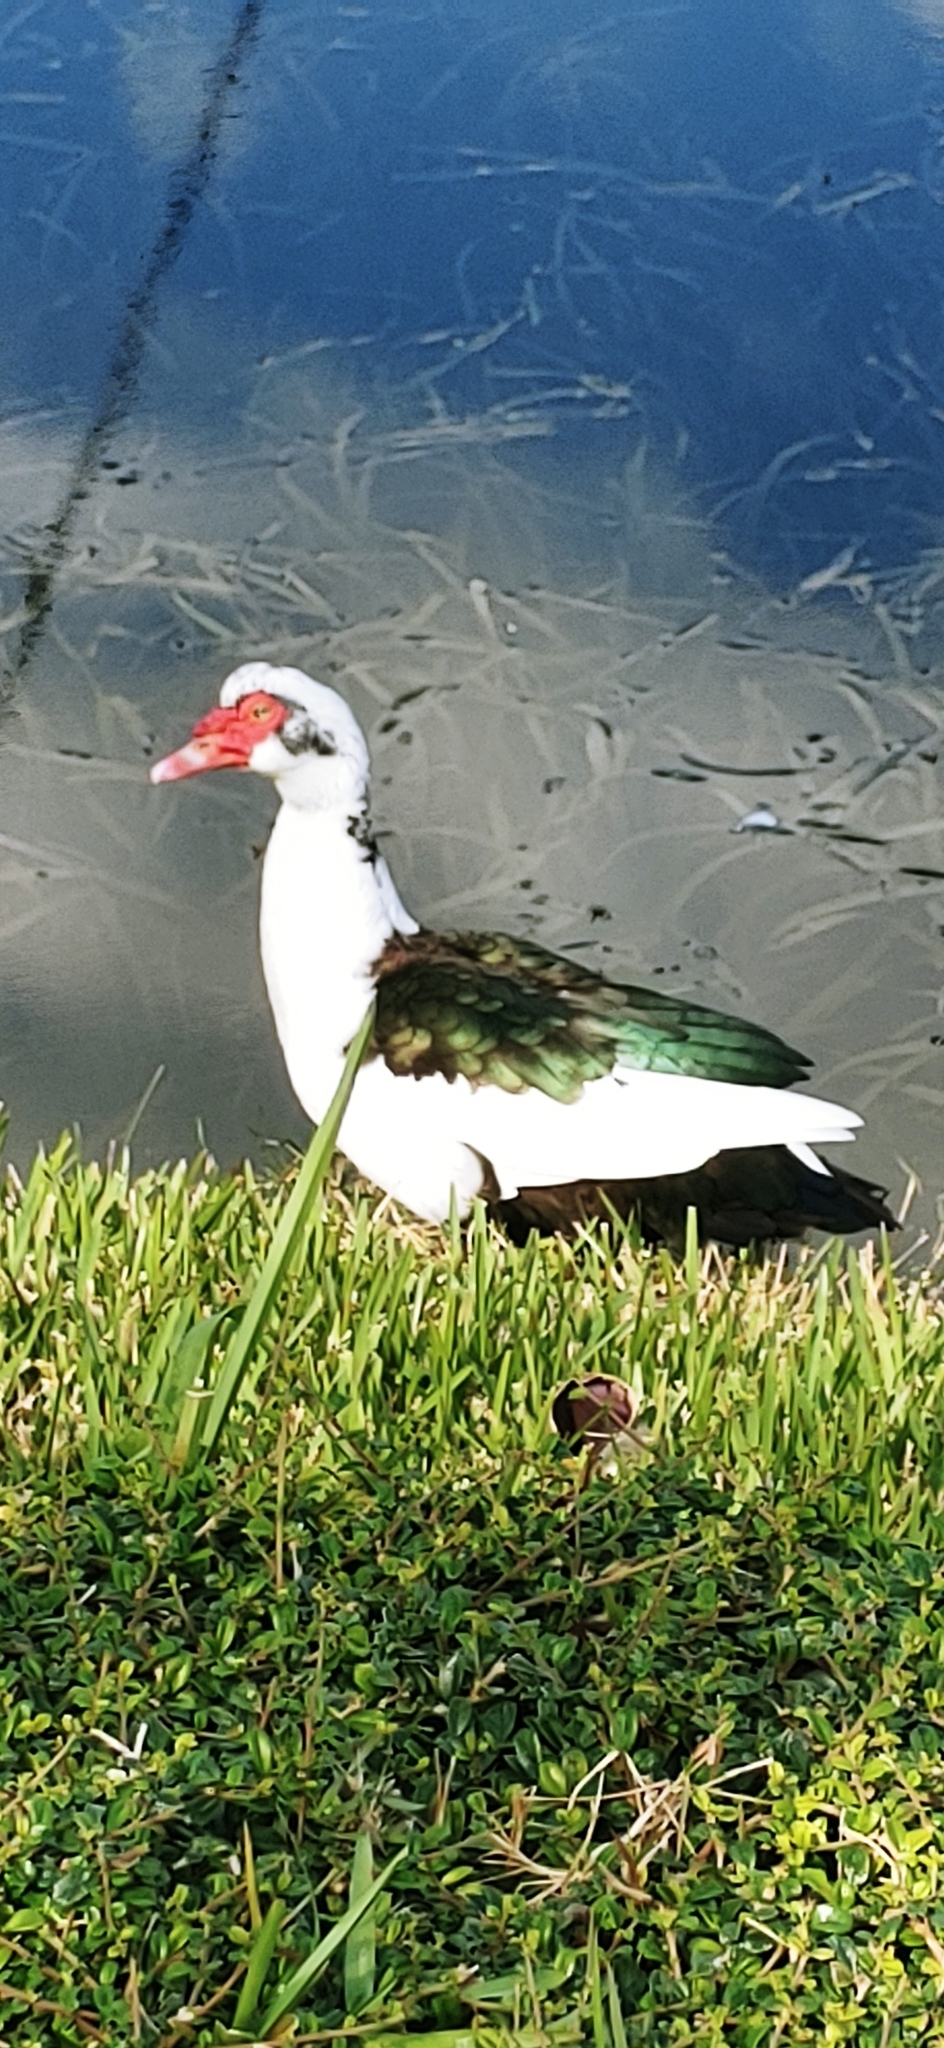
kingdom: Animalia
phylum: Chordata
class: Aves
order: Anseriformes
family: Anatidae
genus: Cairina
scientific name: Cairina moschata
